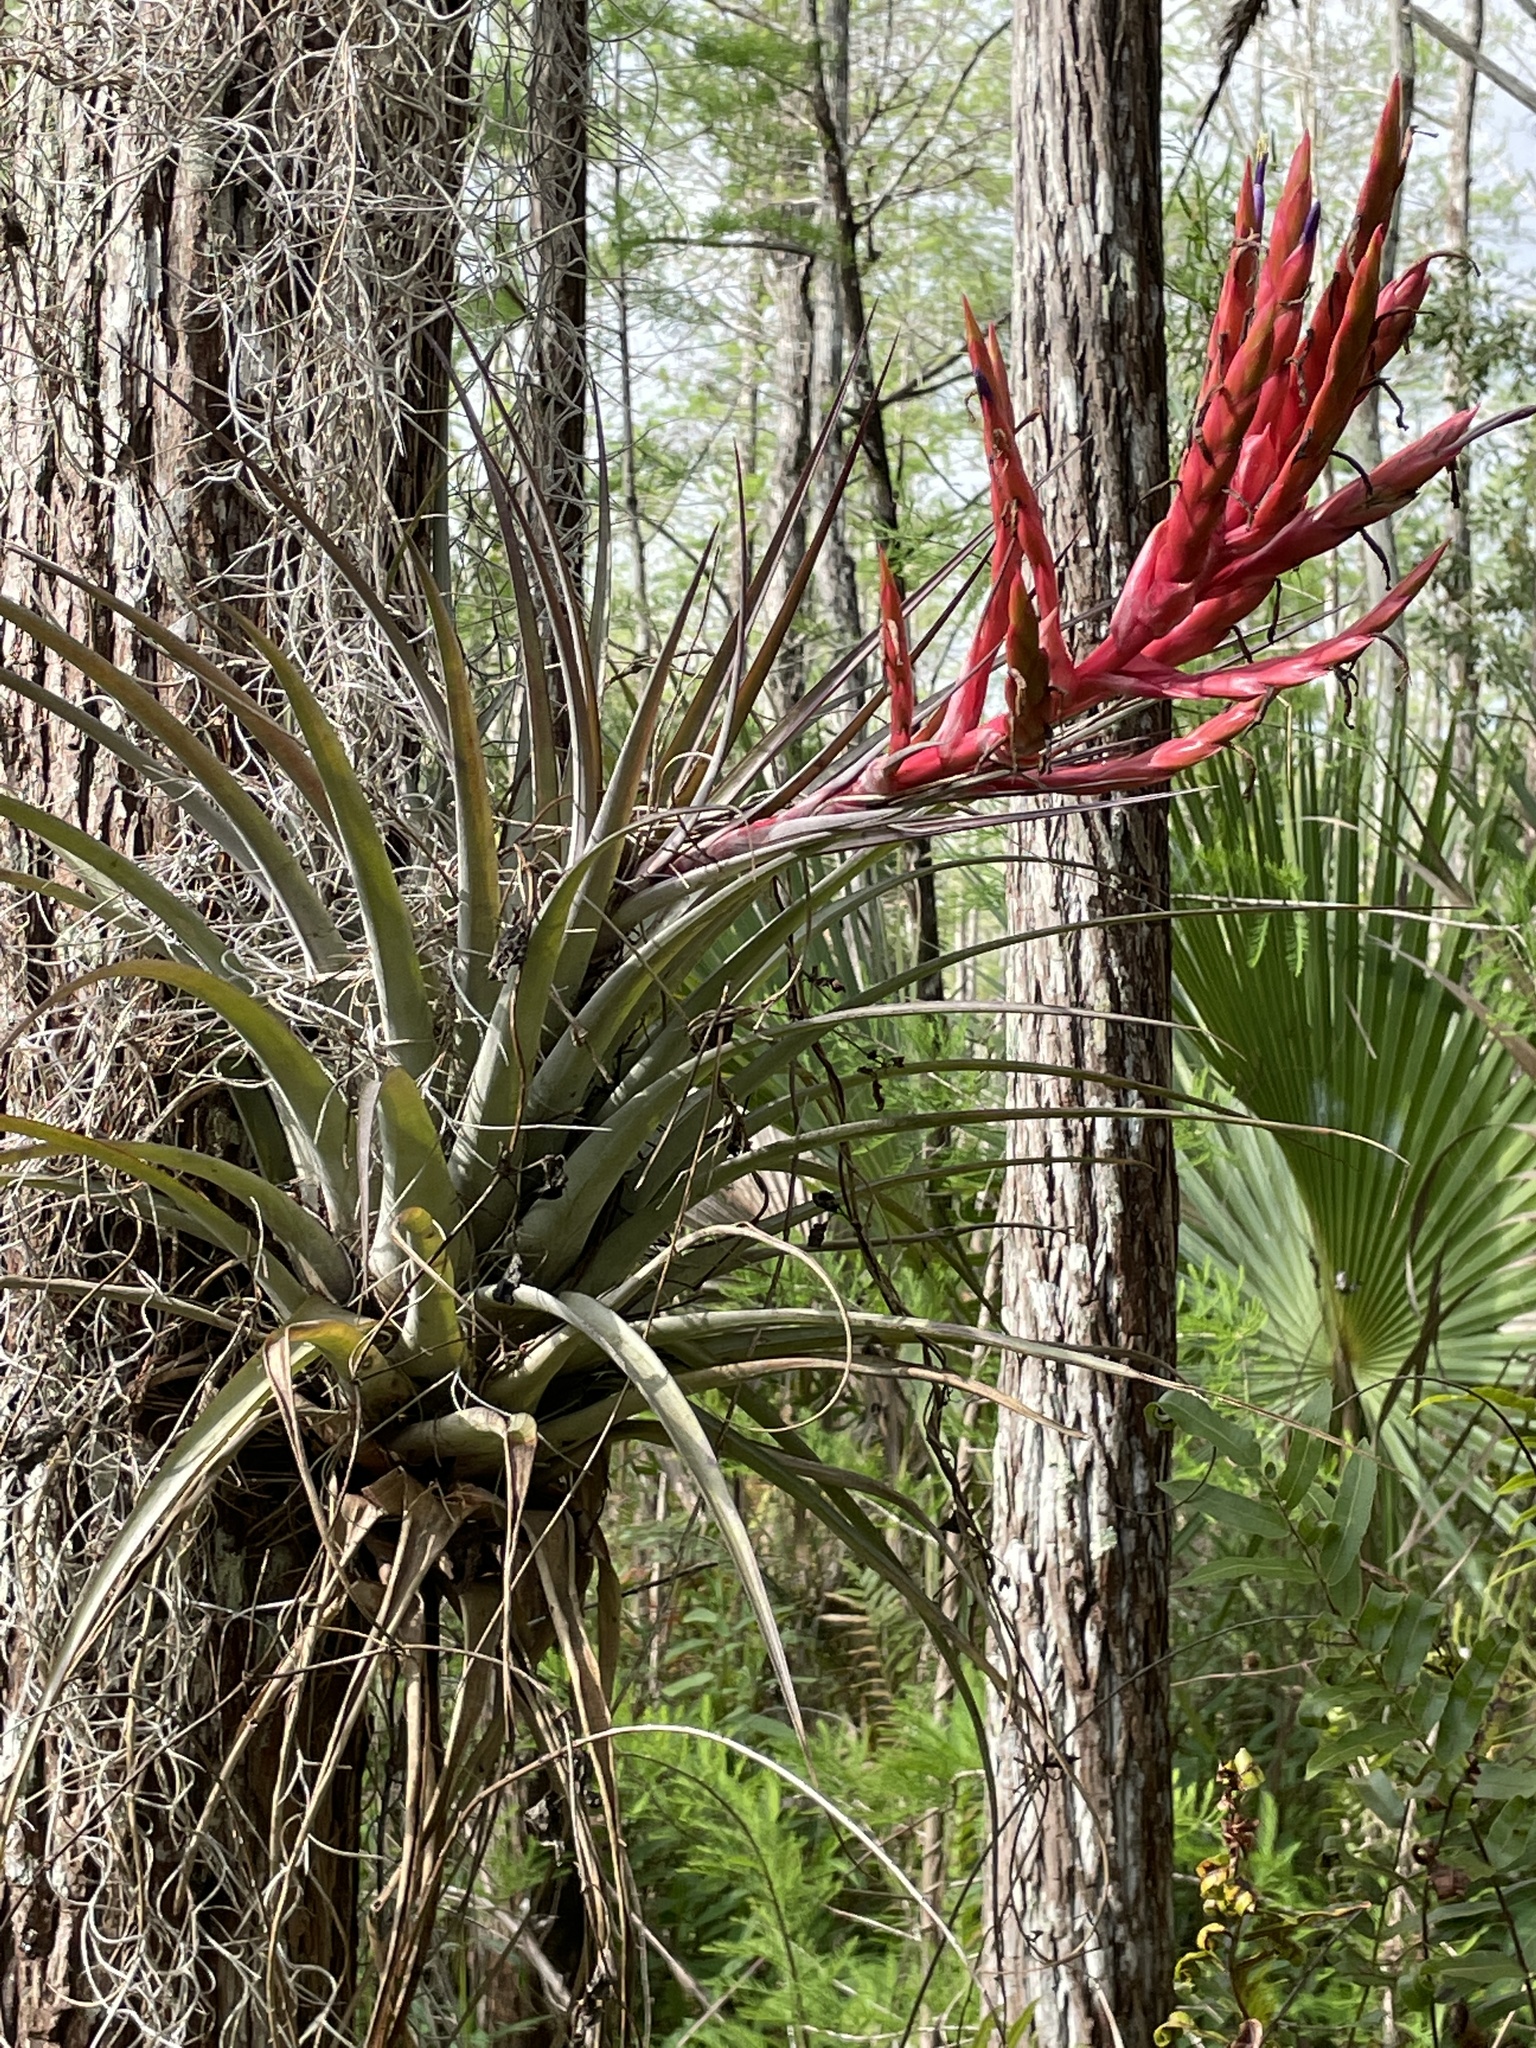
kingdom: Plantae
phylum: Tracheophyta
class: Liliopsida
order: Poales
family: Bromeliaceae
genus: Tillandsia
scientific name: Tillandsia fasciculata
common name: Giant airplant
